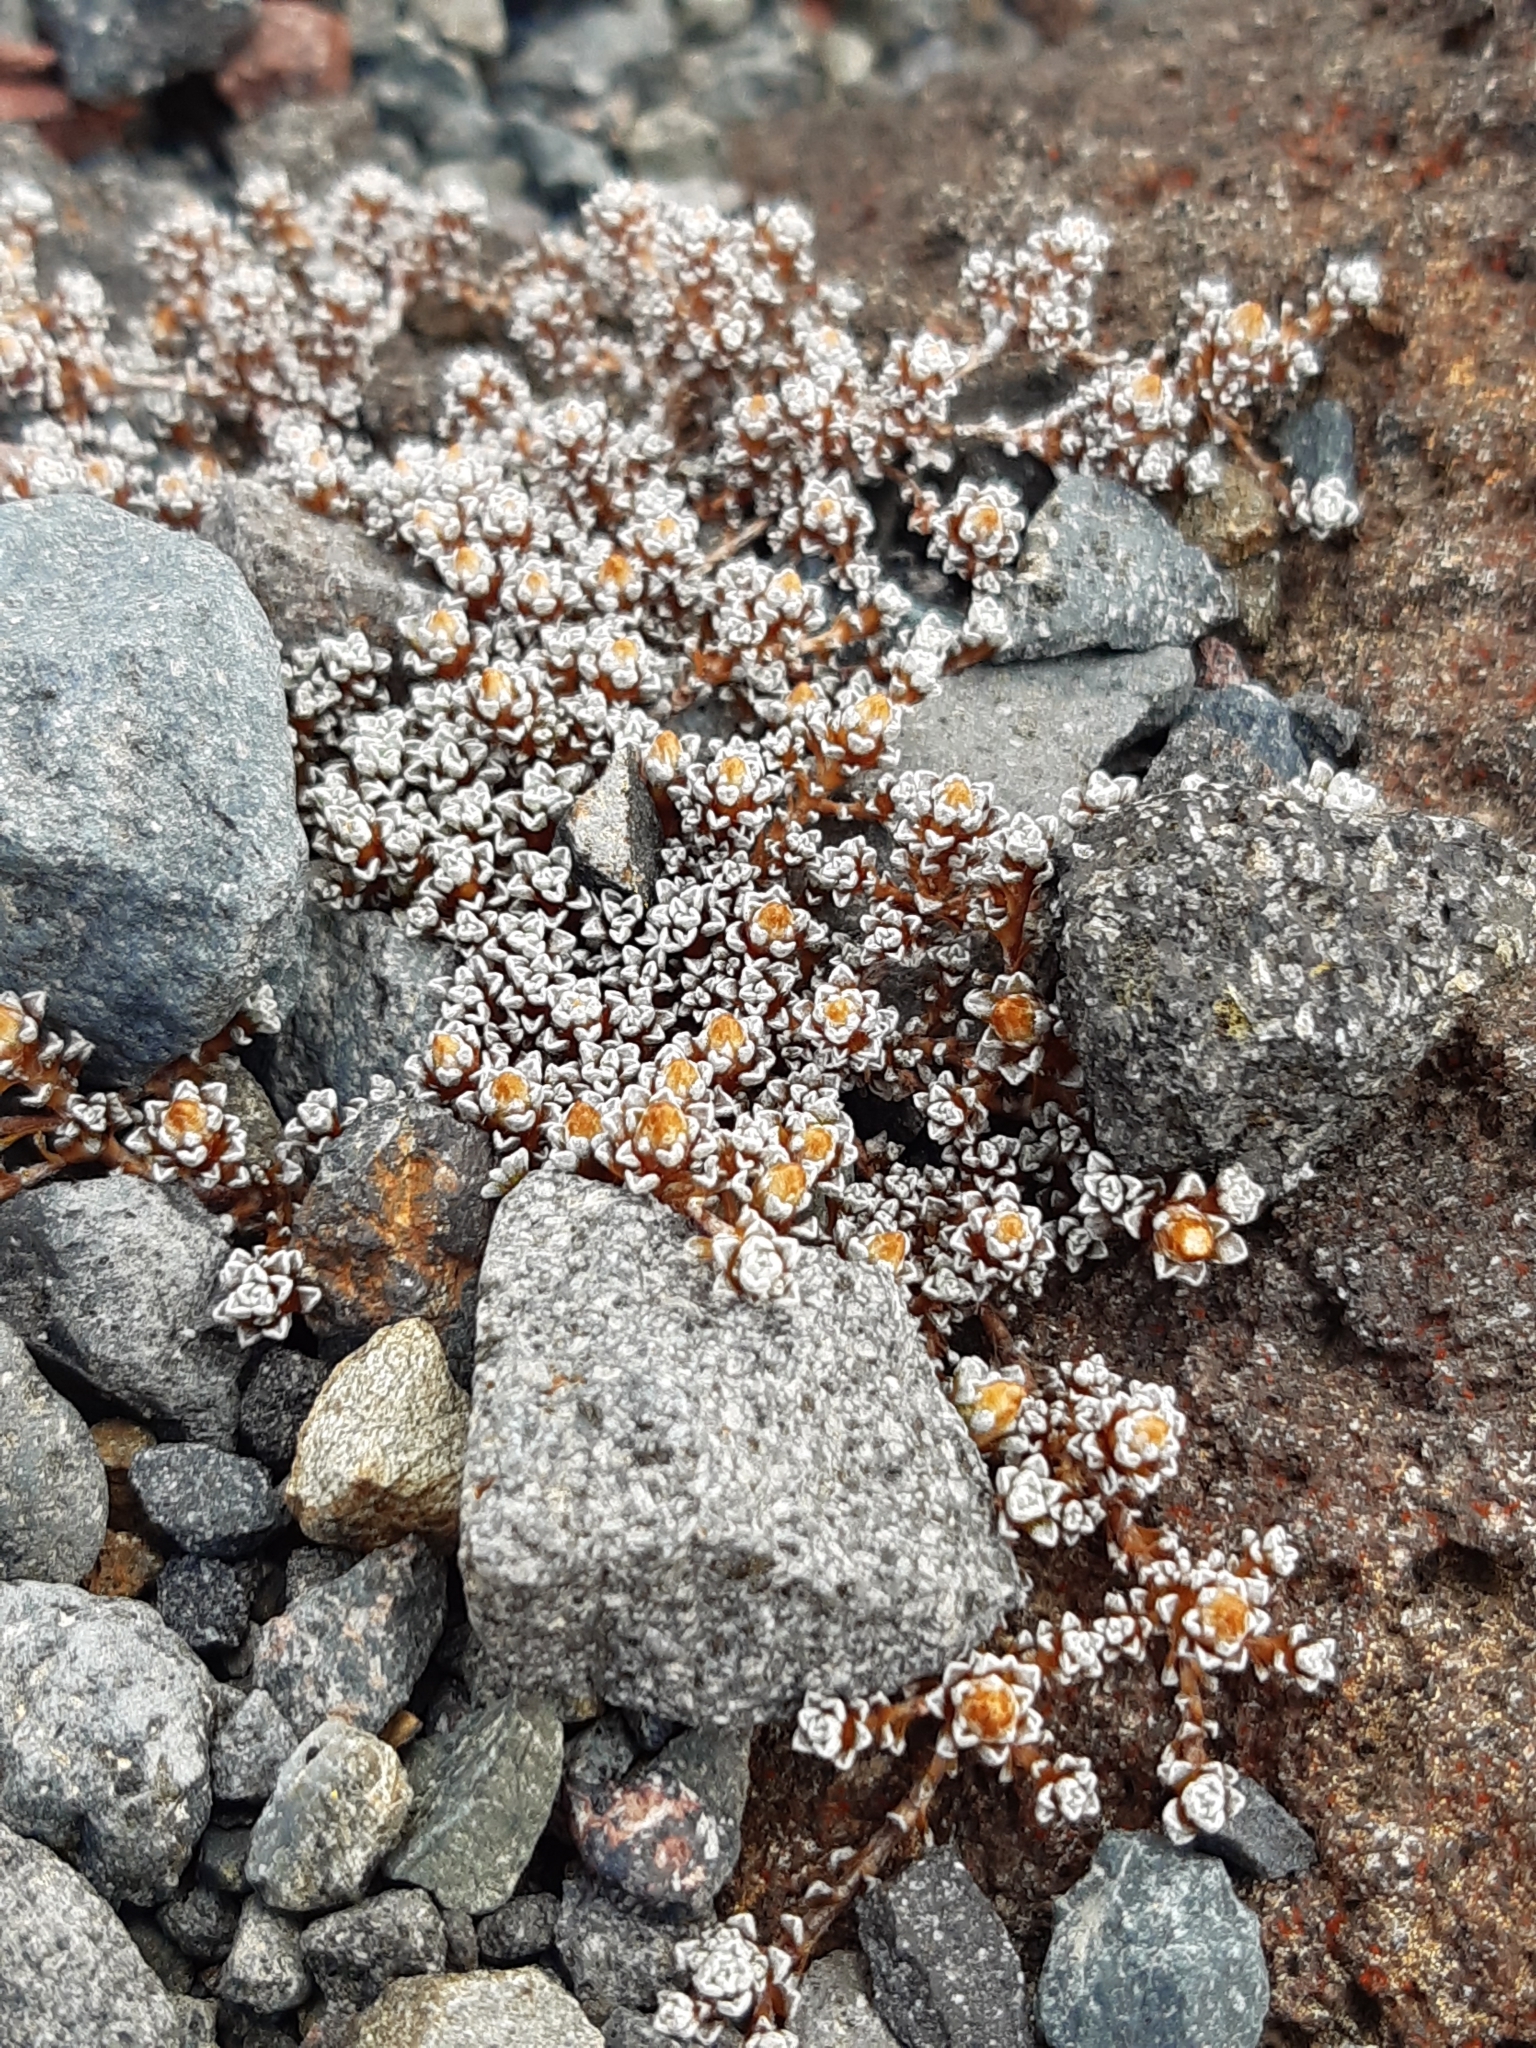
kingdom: Plantae
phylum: Tracheophyta
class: Magnoliopsida
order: Asterales
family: Asteraceae
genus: Raoulia
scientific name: Raoulia albosericea
